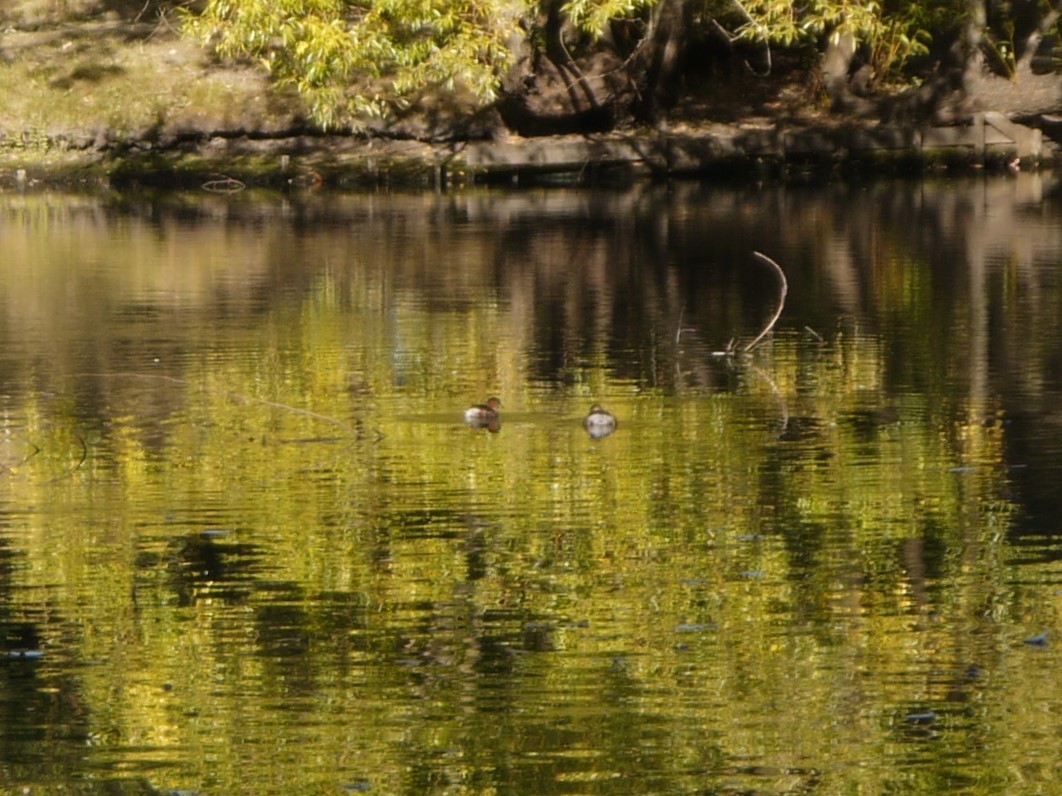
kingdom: Animalia
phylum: Chordata
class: Aves
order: Podicipediformes
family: Podicipedidae
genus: Tachybaptus
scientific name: Tachybaptus ruficollis
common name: Little grebe
